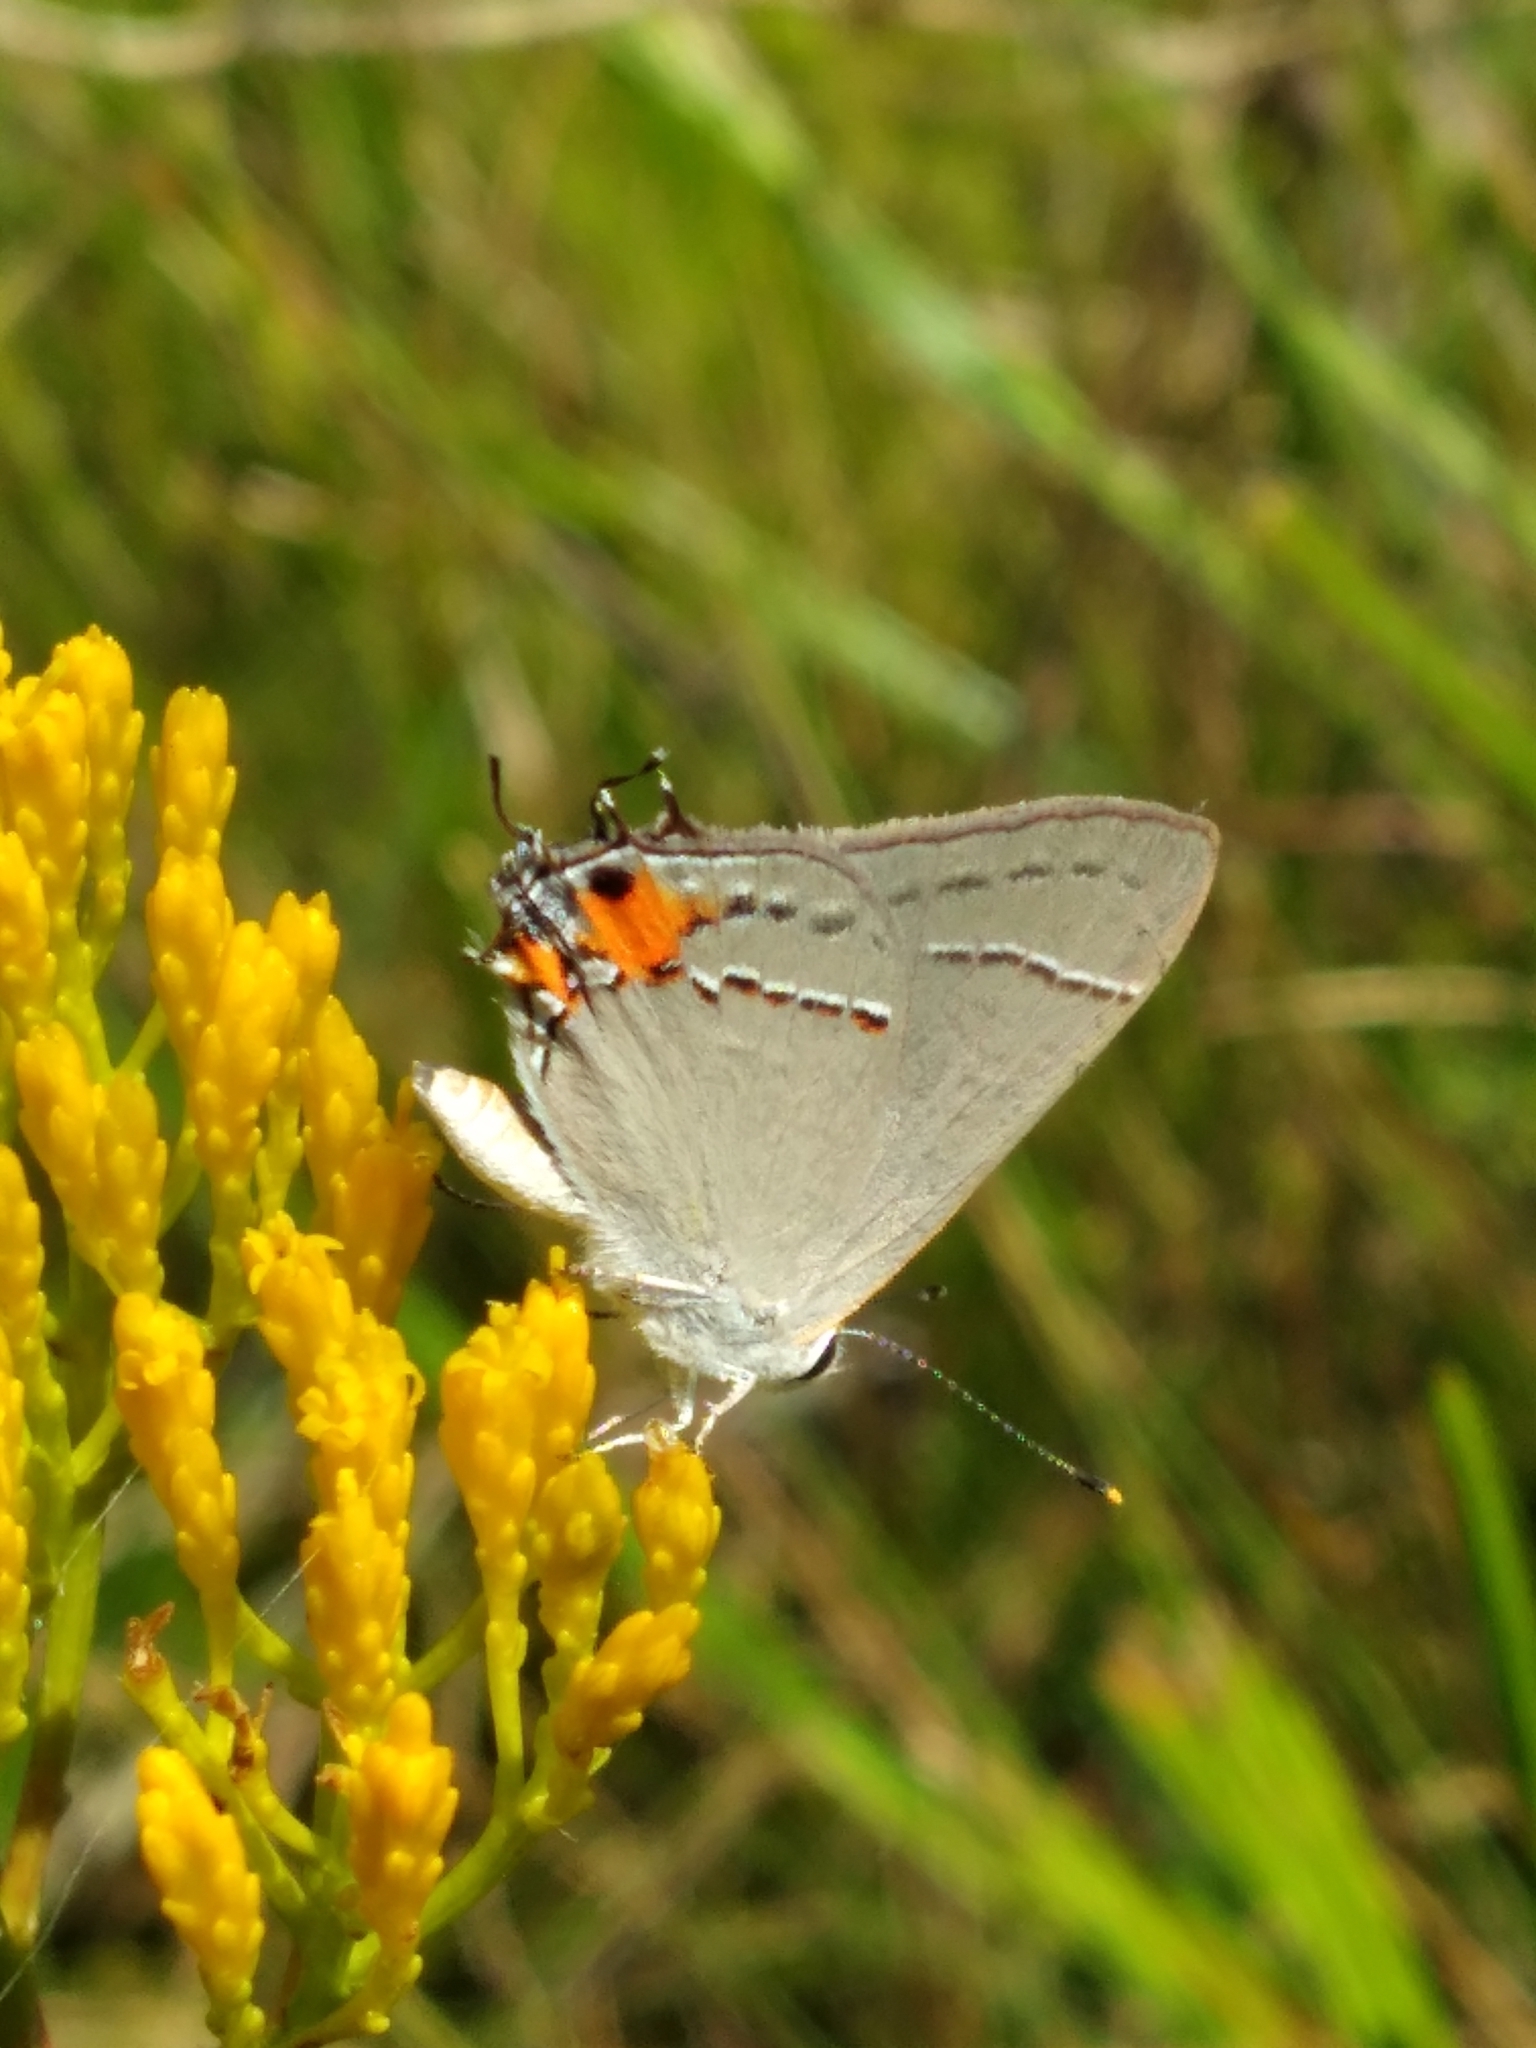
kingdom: Animalia
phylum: Arthropoda
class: Insecta
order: Lepidoptera
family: Lycaenidae
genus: Strymon
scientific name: Strymon melinus
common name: Gray hairstreak
